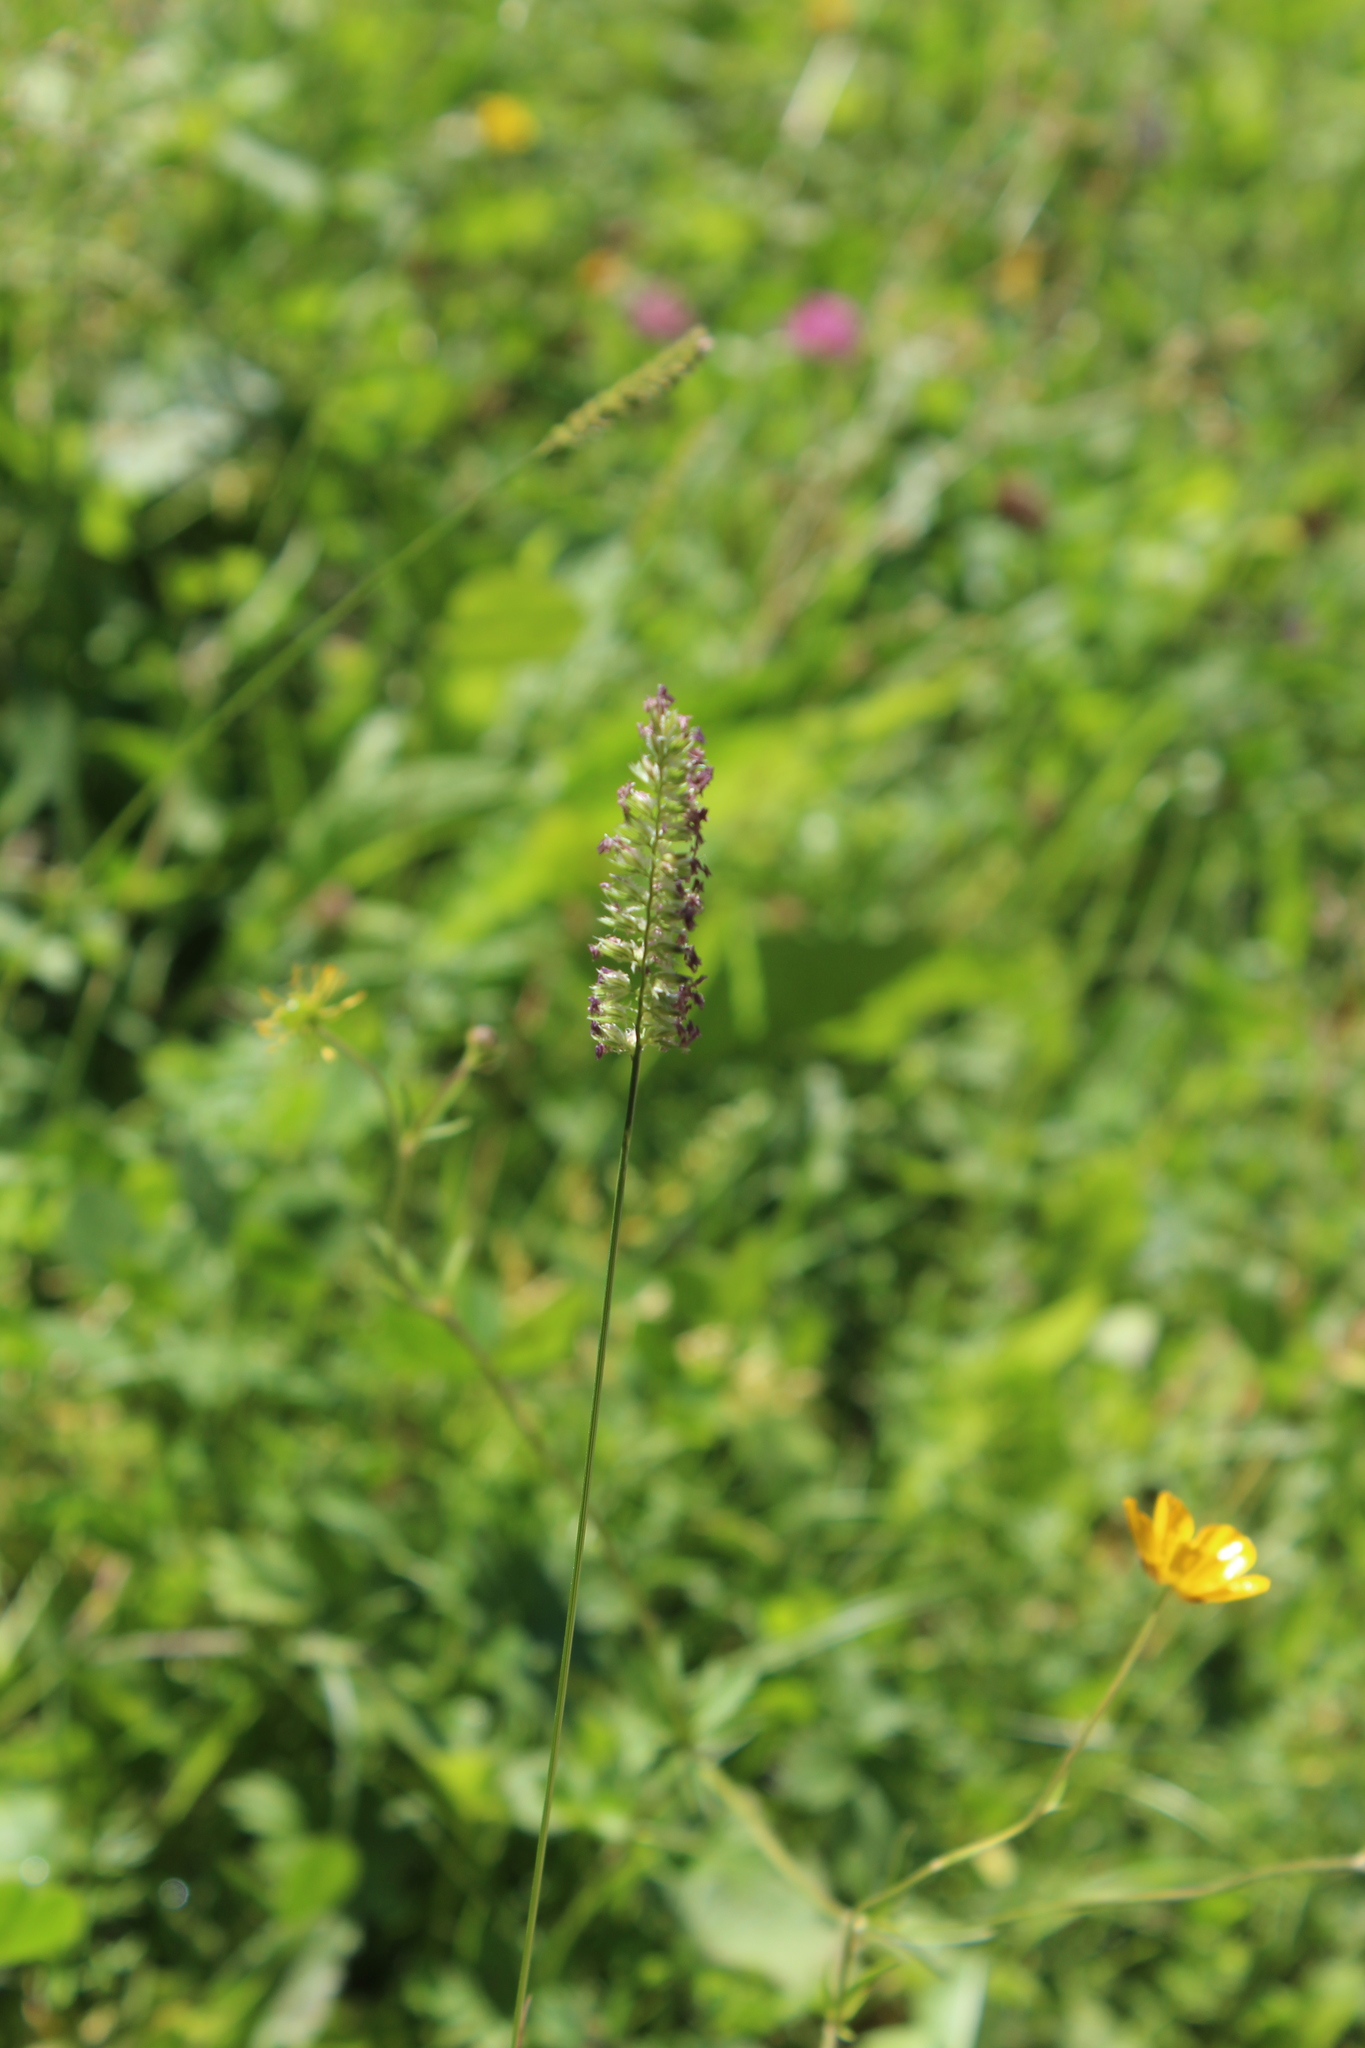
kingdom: Plantae
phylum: Tracheophyta
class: Liliopsida
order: Poales
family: Poaceae
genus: Cynosurus
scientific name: Cynosurus cristatus
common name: Crested dog's-tail
